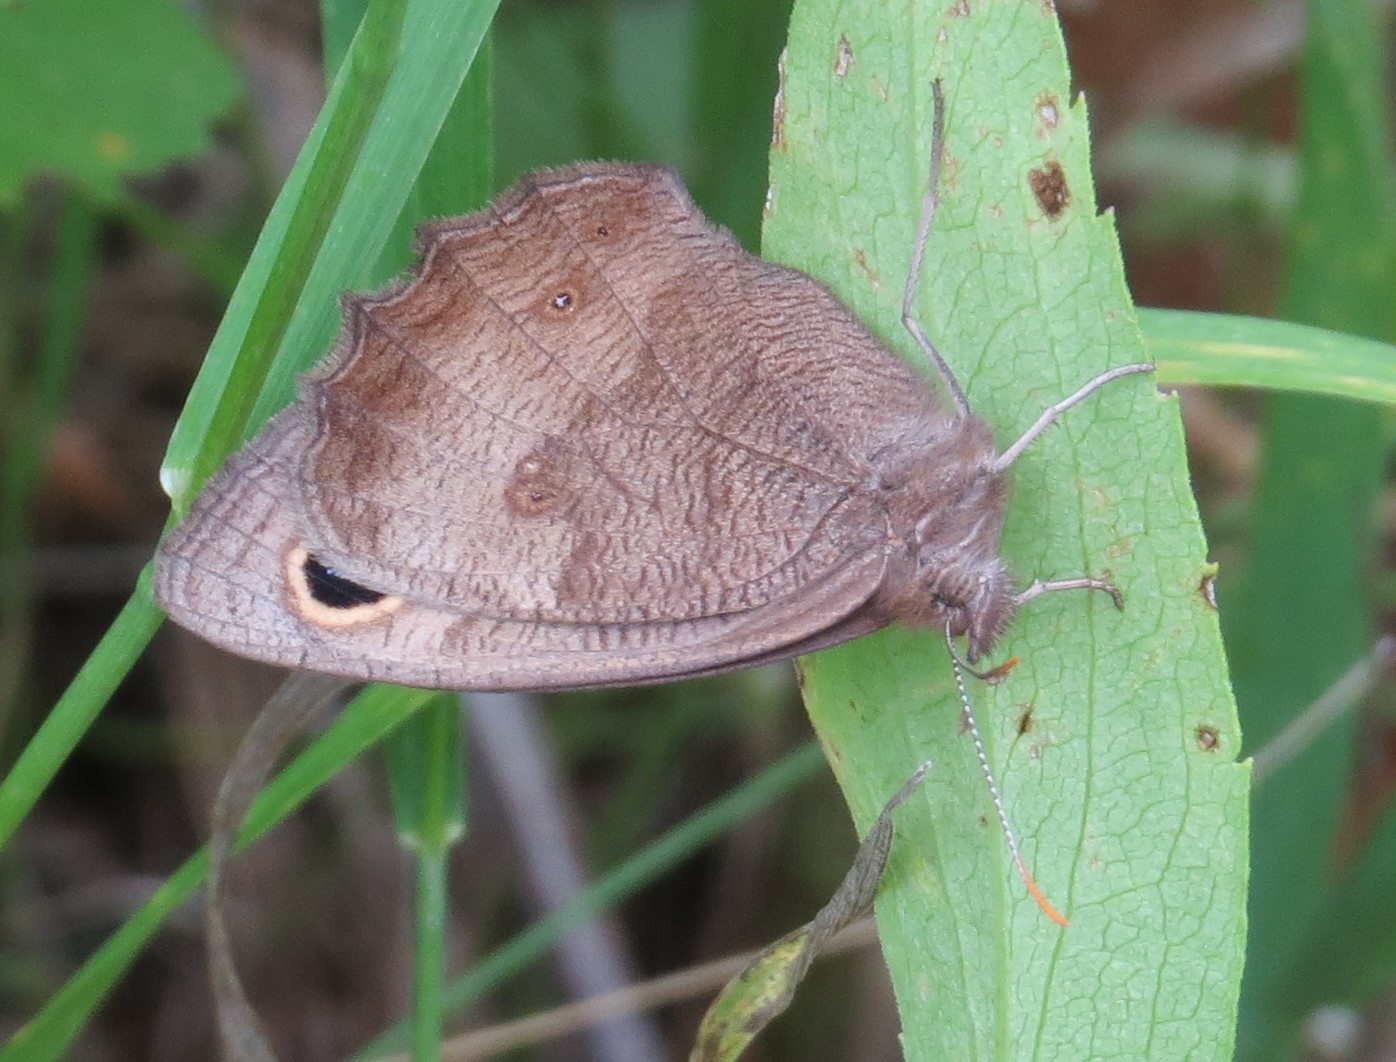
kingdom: Animalia
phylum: Arthropoda
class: Insecta
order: Lepidoptera
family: Nymphalidae
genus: Cercyonis
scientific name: Cercyonis pegala
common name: Common wood-nymph
